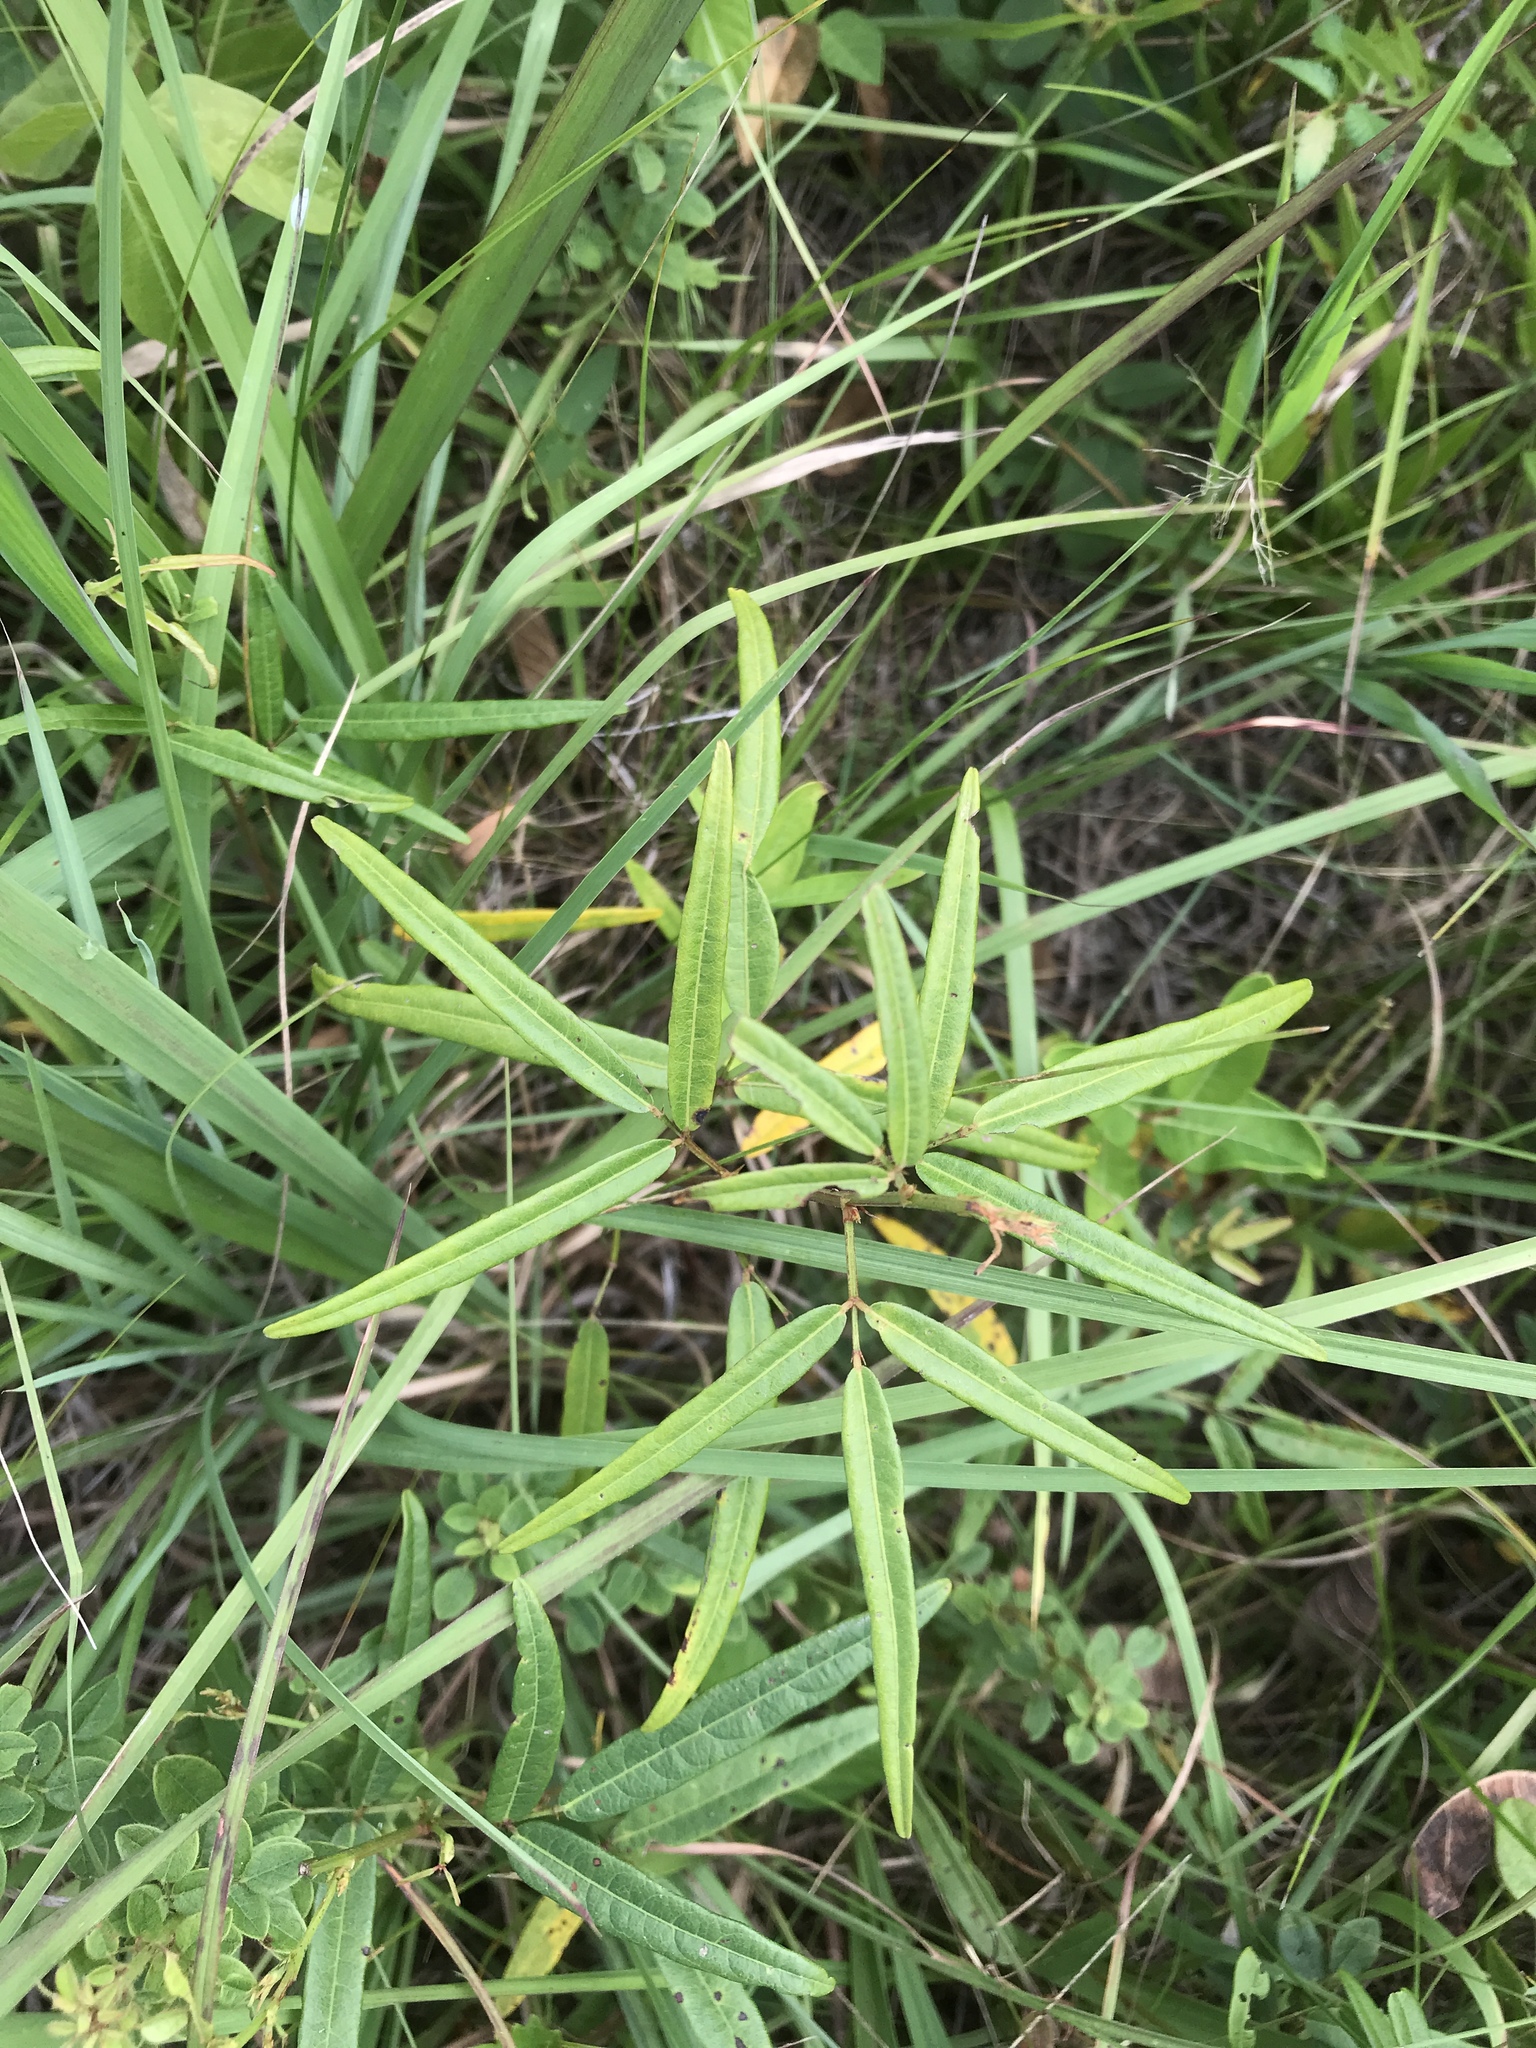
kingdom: Plantae
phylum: Tracheophyta
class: Magnoliopsida
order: Fabales
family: Fabaceae
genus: Desmodium
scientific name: Desmodium paniculatum
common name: Panicled tick-clover
